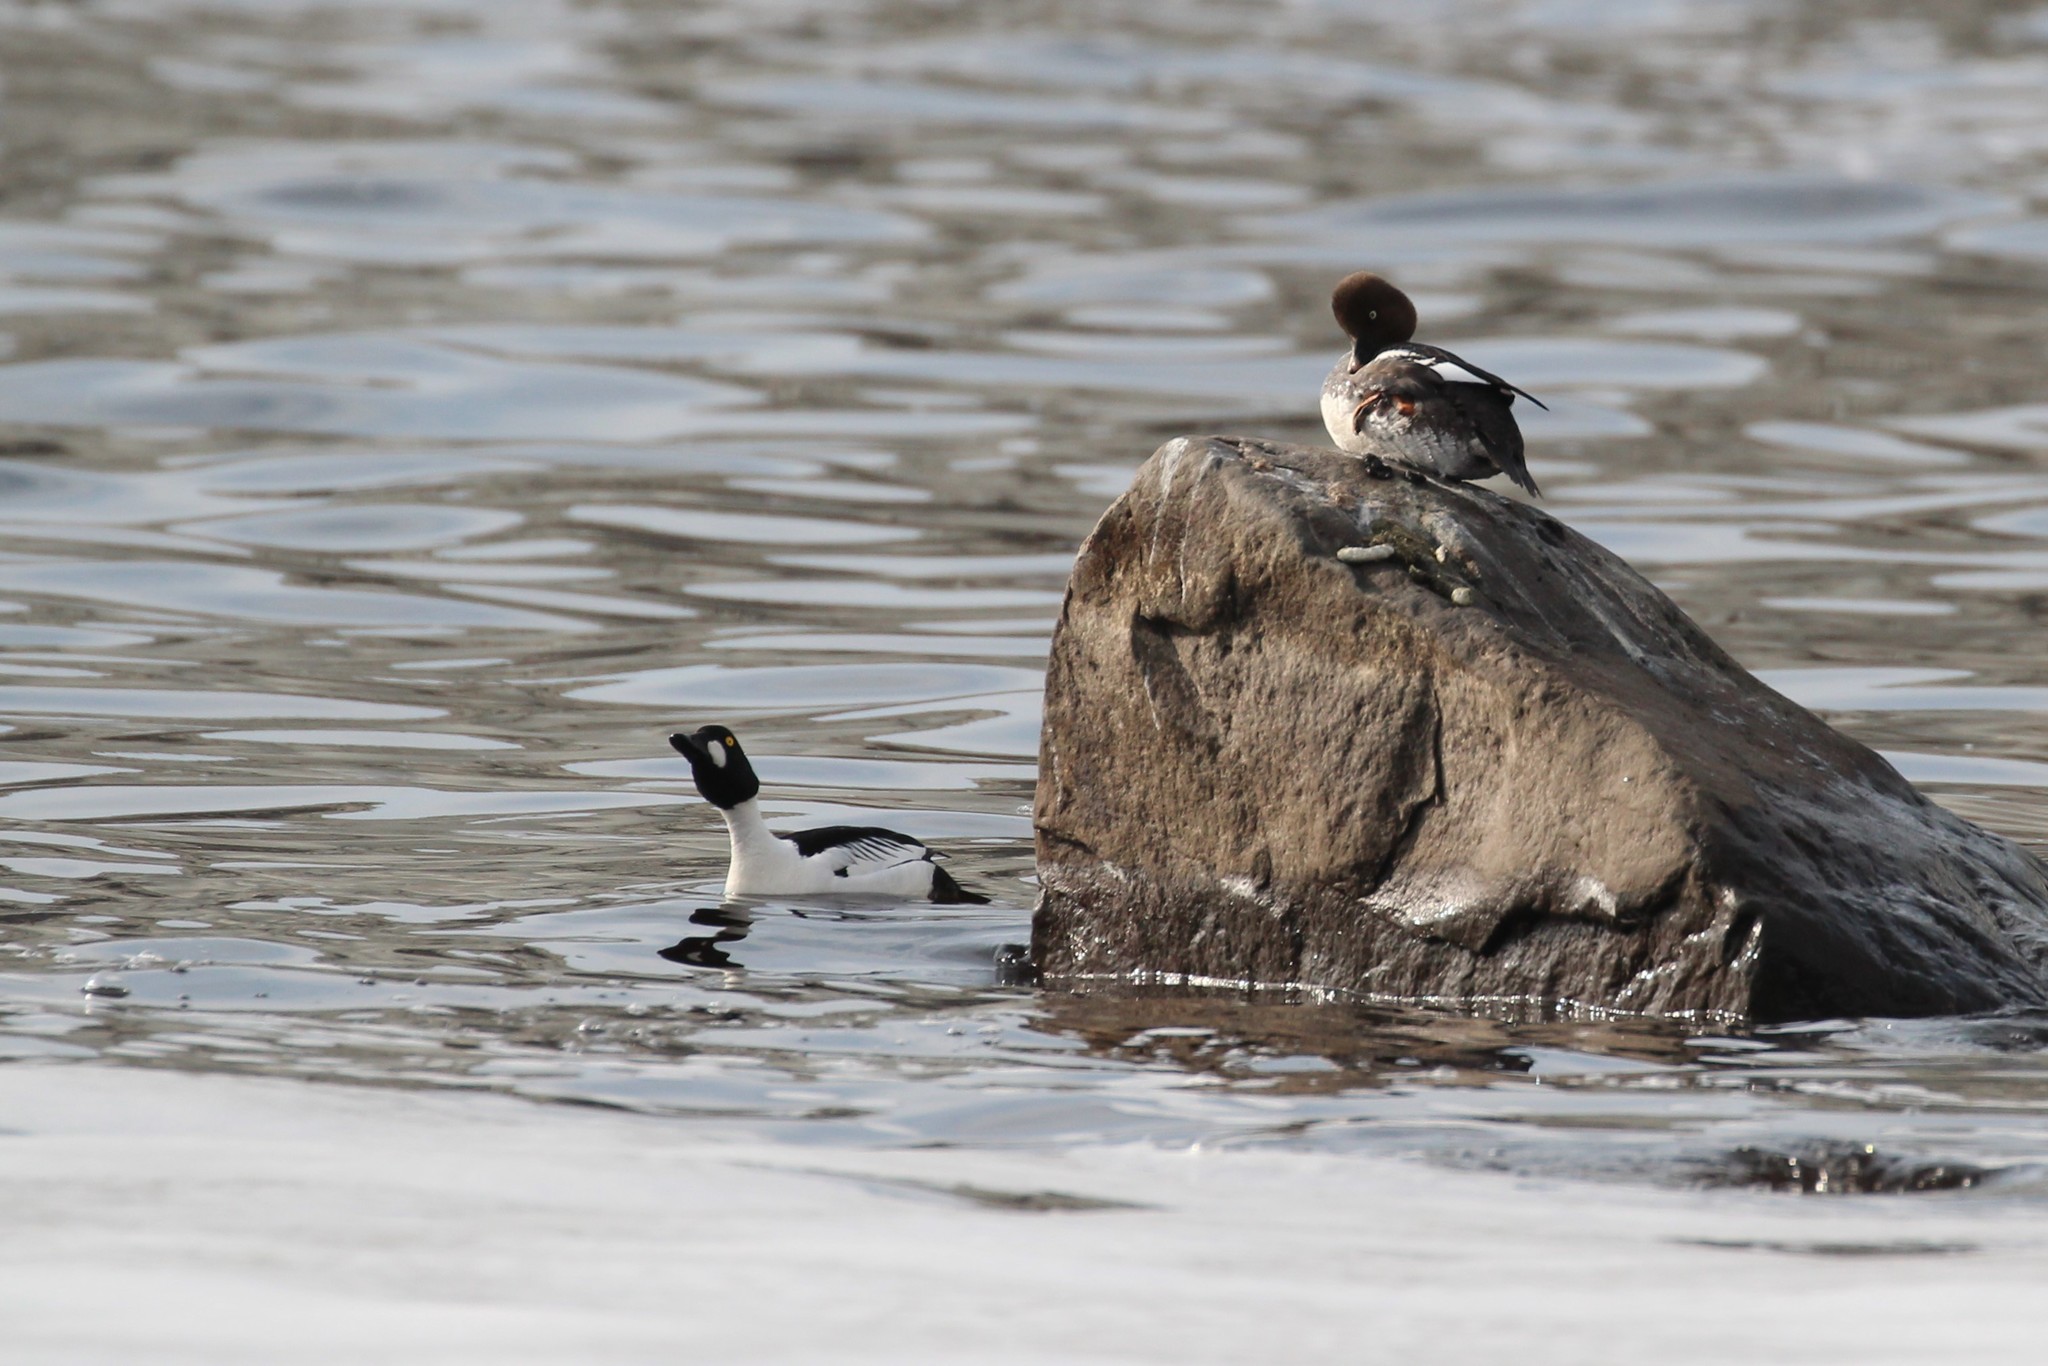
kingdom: Animalia
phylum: Chordata
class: Aves
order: Anseriformes
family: Anatidae
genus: Bucephala
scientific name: Bucephala clangula
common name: Common goldeneye
